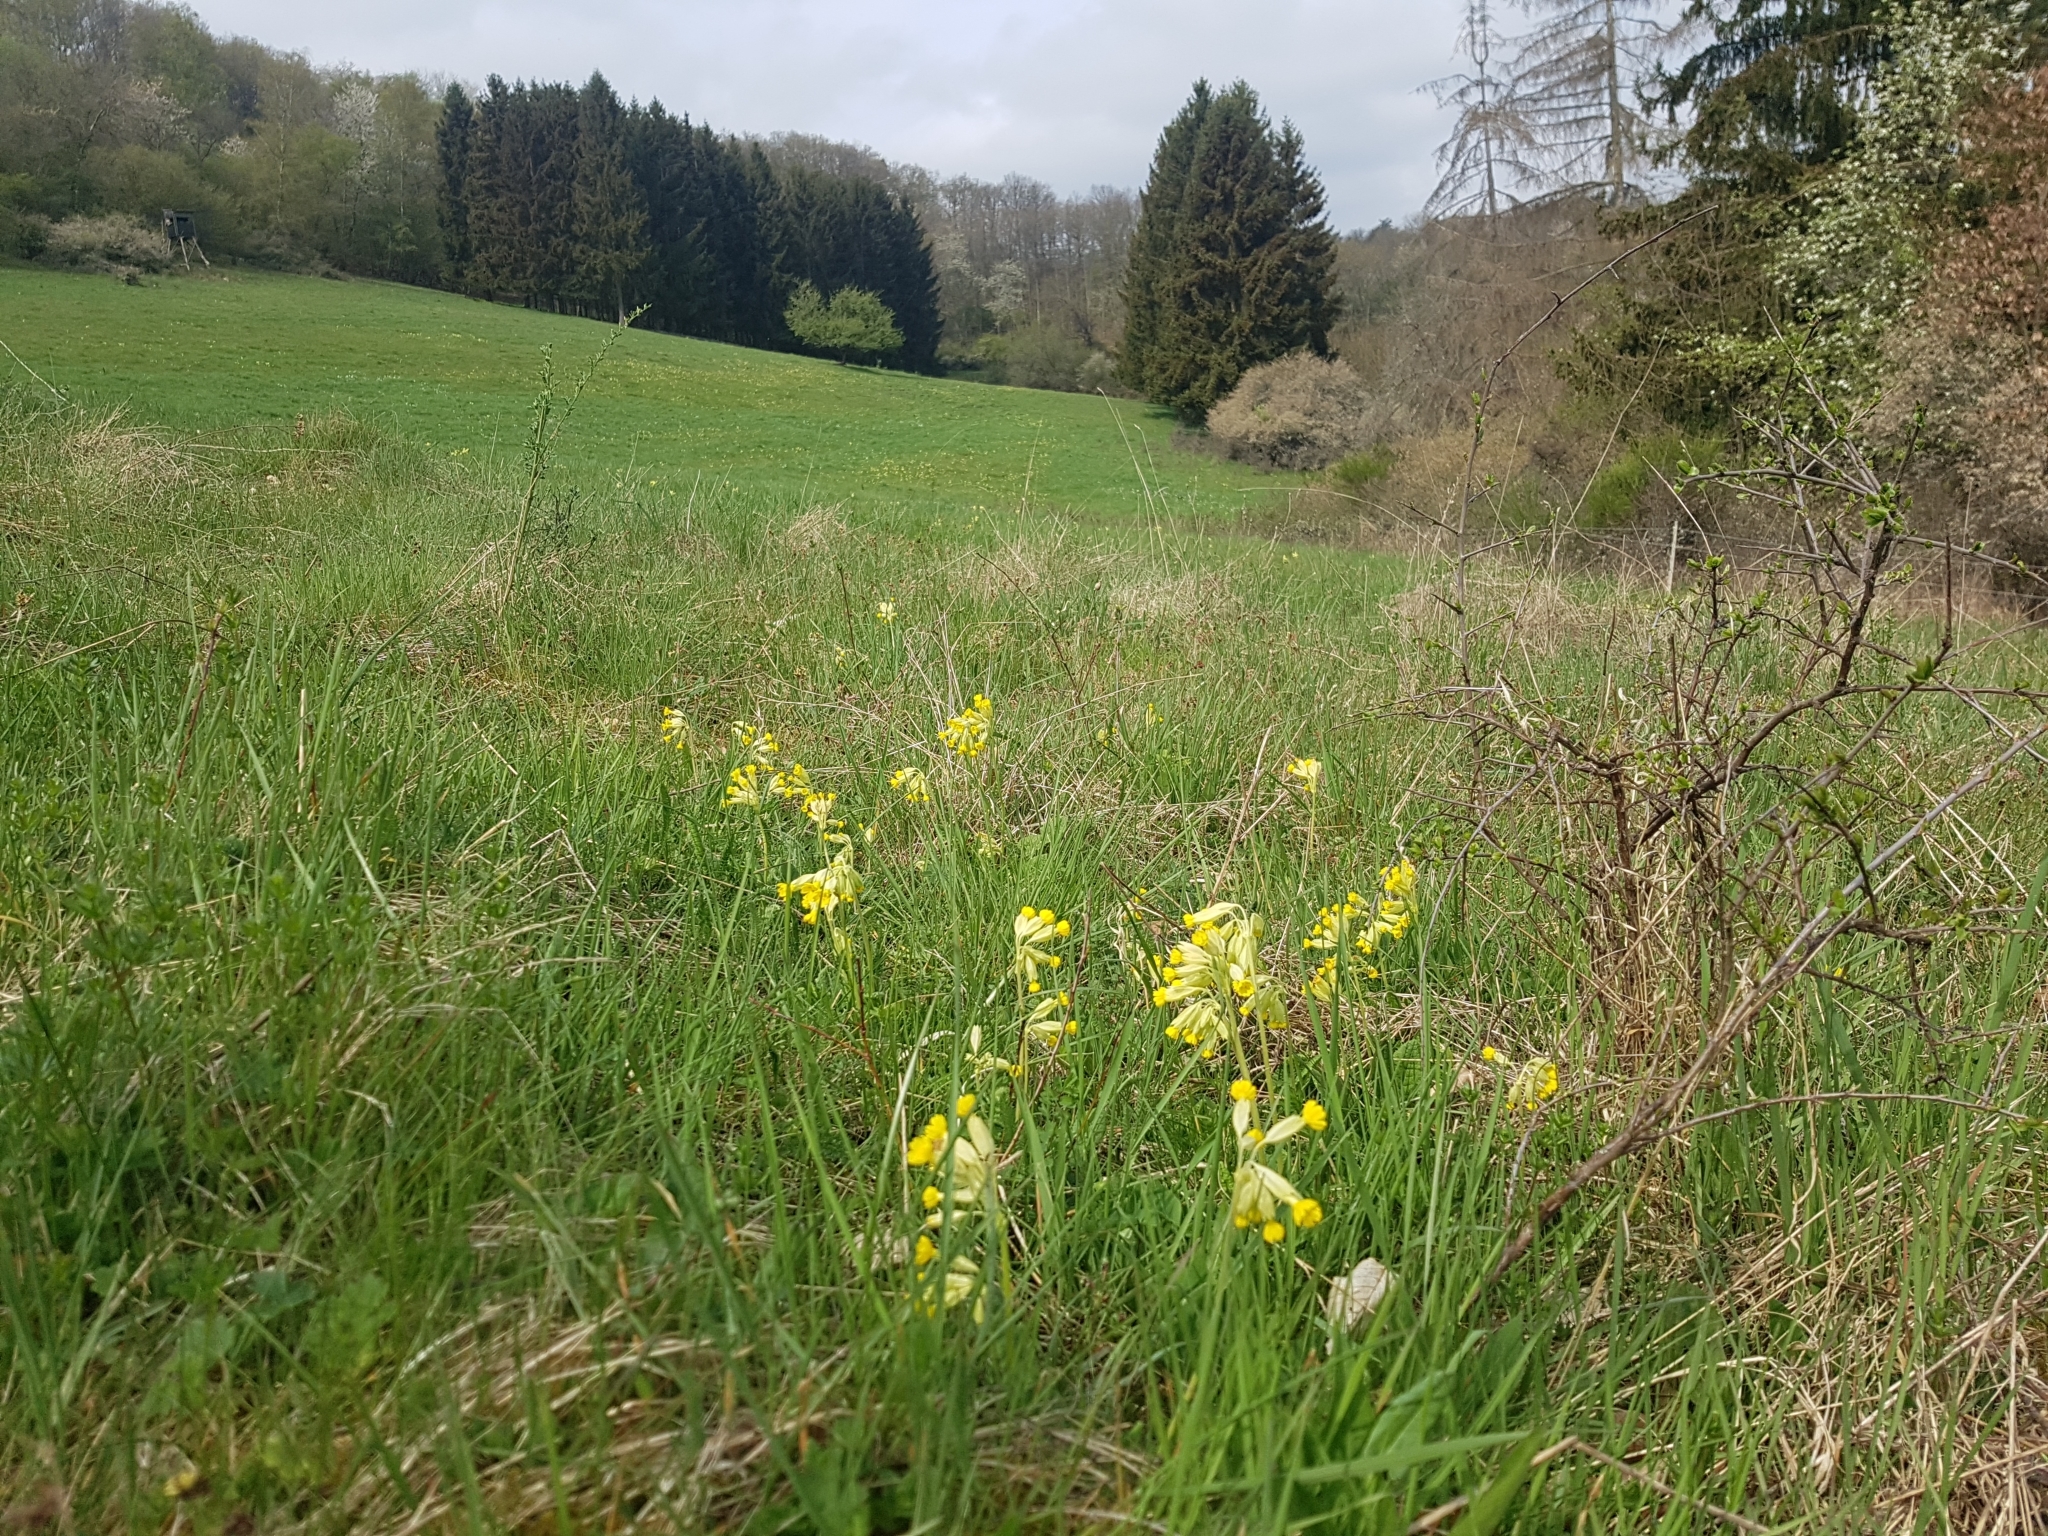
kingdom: Plantae
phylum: Tracheophyta
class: Magnoliopsida
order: Ericales
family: Primulaceae
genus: Primula
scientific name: Primula veris
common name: Cowslip
